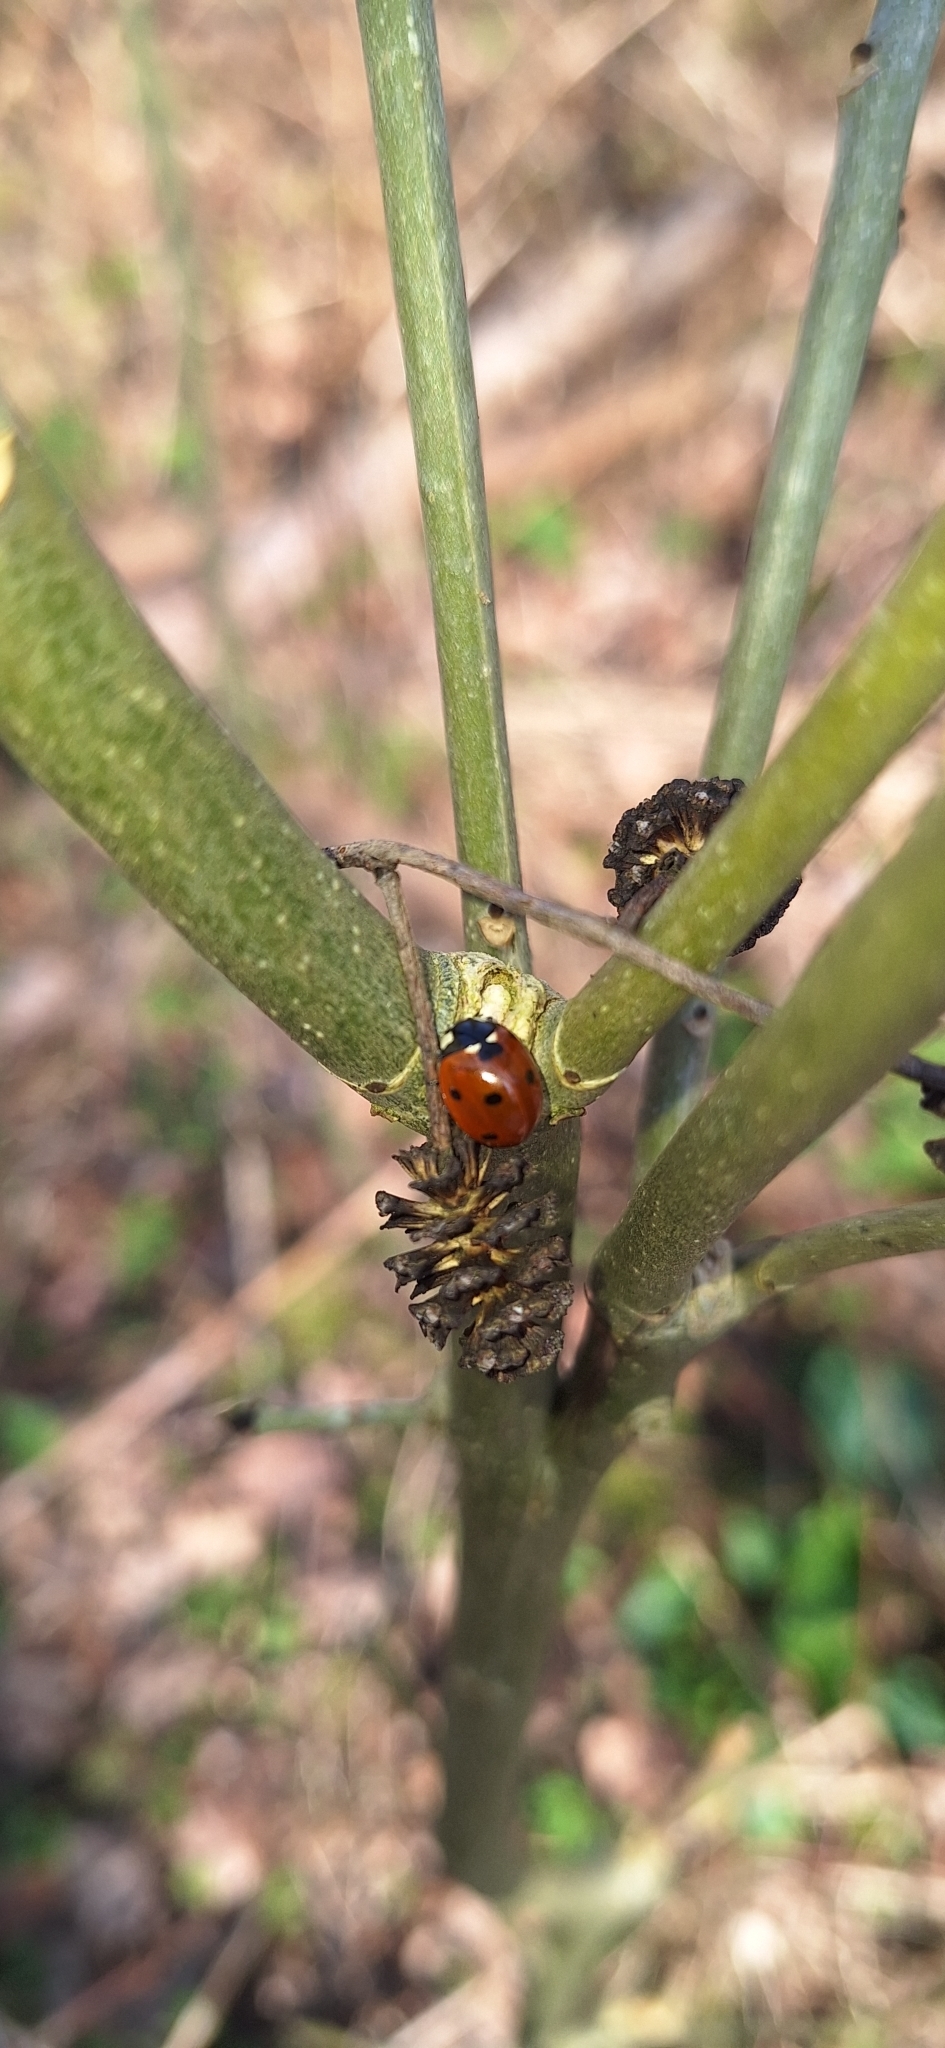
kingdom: Animalia
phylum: Arthropoda
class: Insecta
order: Coleoptera
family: Coccinellidae
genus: Coccinella
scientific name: Coccinella septempunctata
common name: Sevenspotted lady beetle
